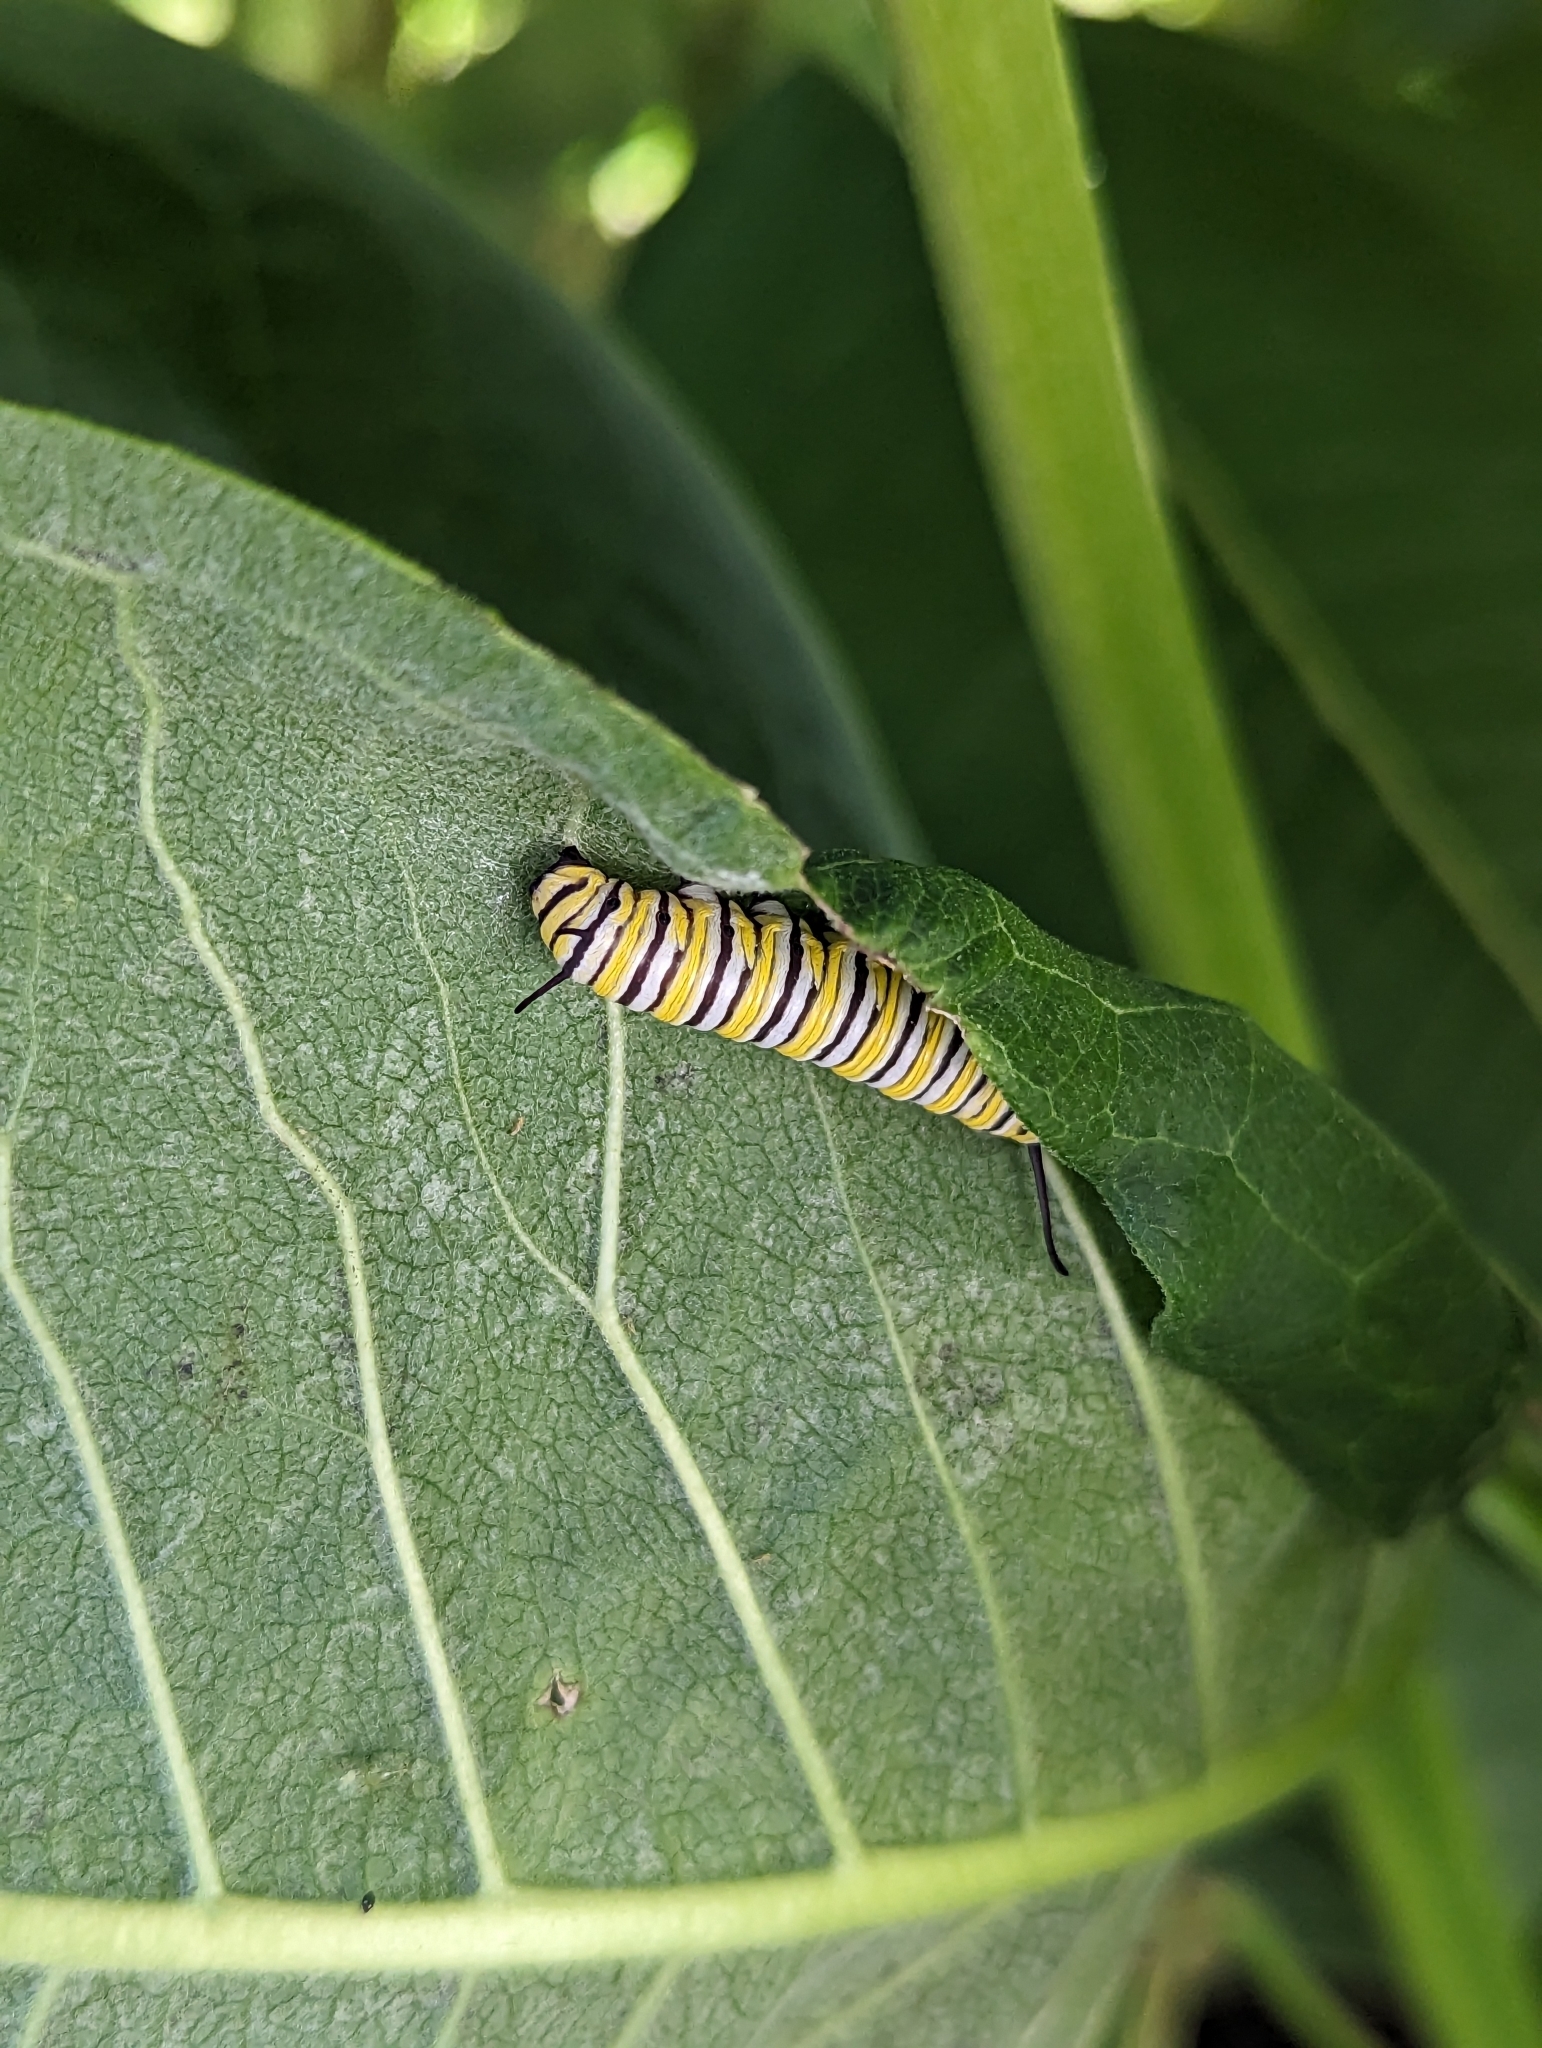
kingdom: Animalia
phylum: Arthropoda
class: Insecta
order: Lepidoptera
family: Nymphalidae
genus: Danaus
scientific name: Danaus plexippus
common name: Monarch
